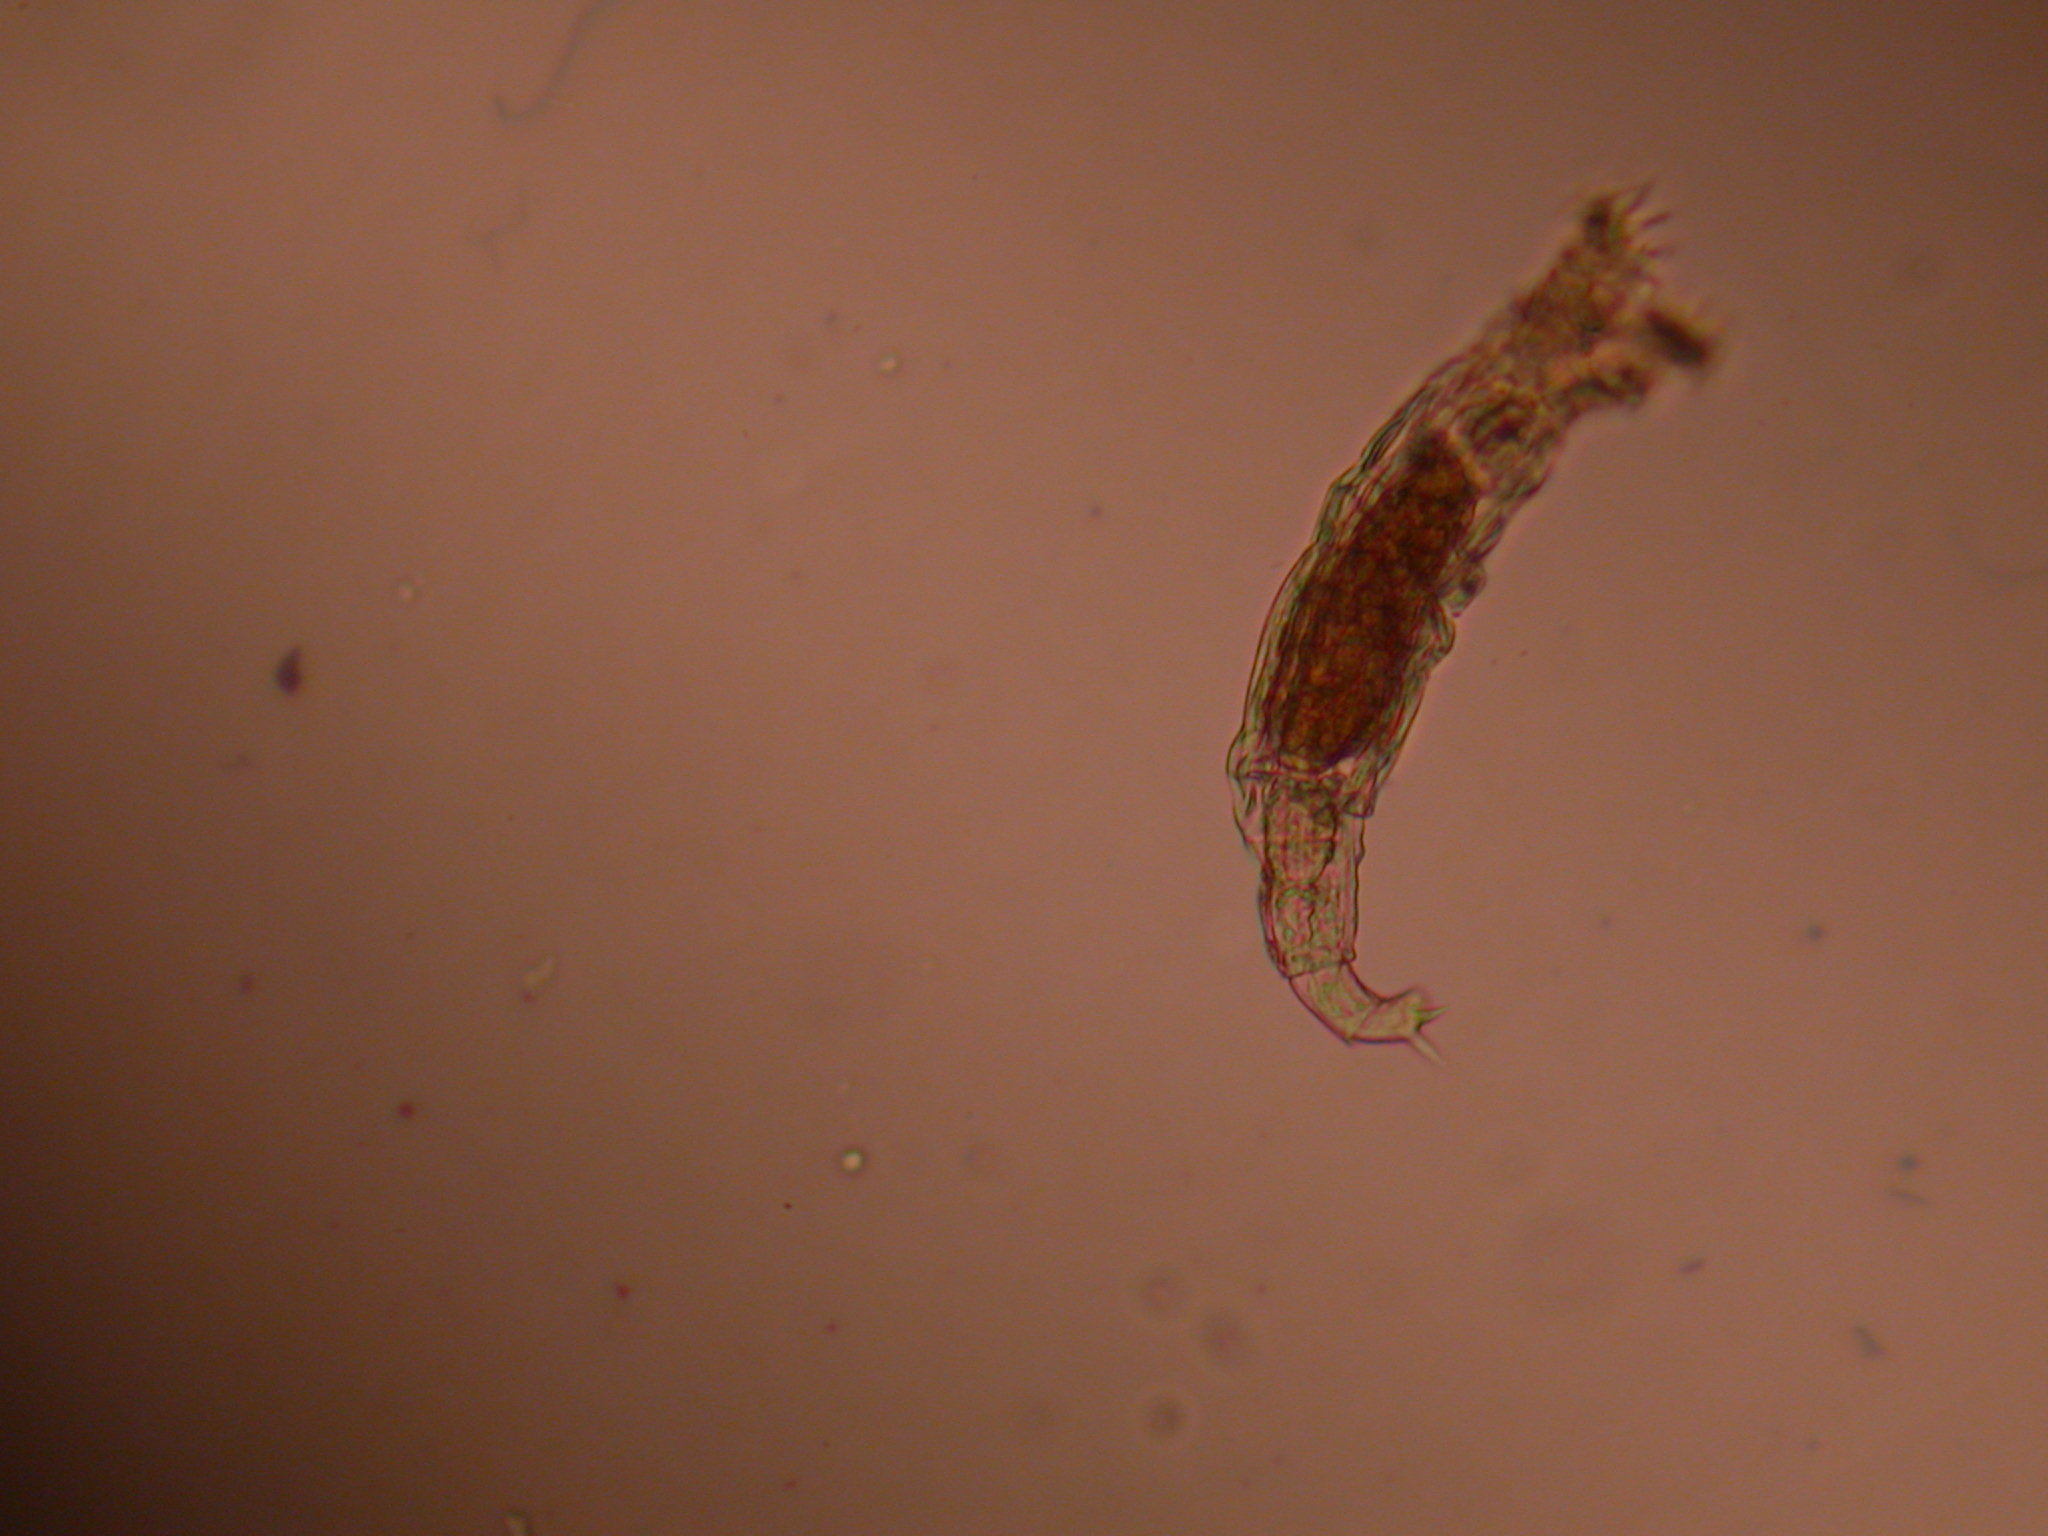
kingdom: Animalia
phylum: Rotifera
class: Eurotatoria
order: Bdelloidea
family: Philodinidae
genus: Philodina
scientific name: Philodina acuticornis
